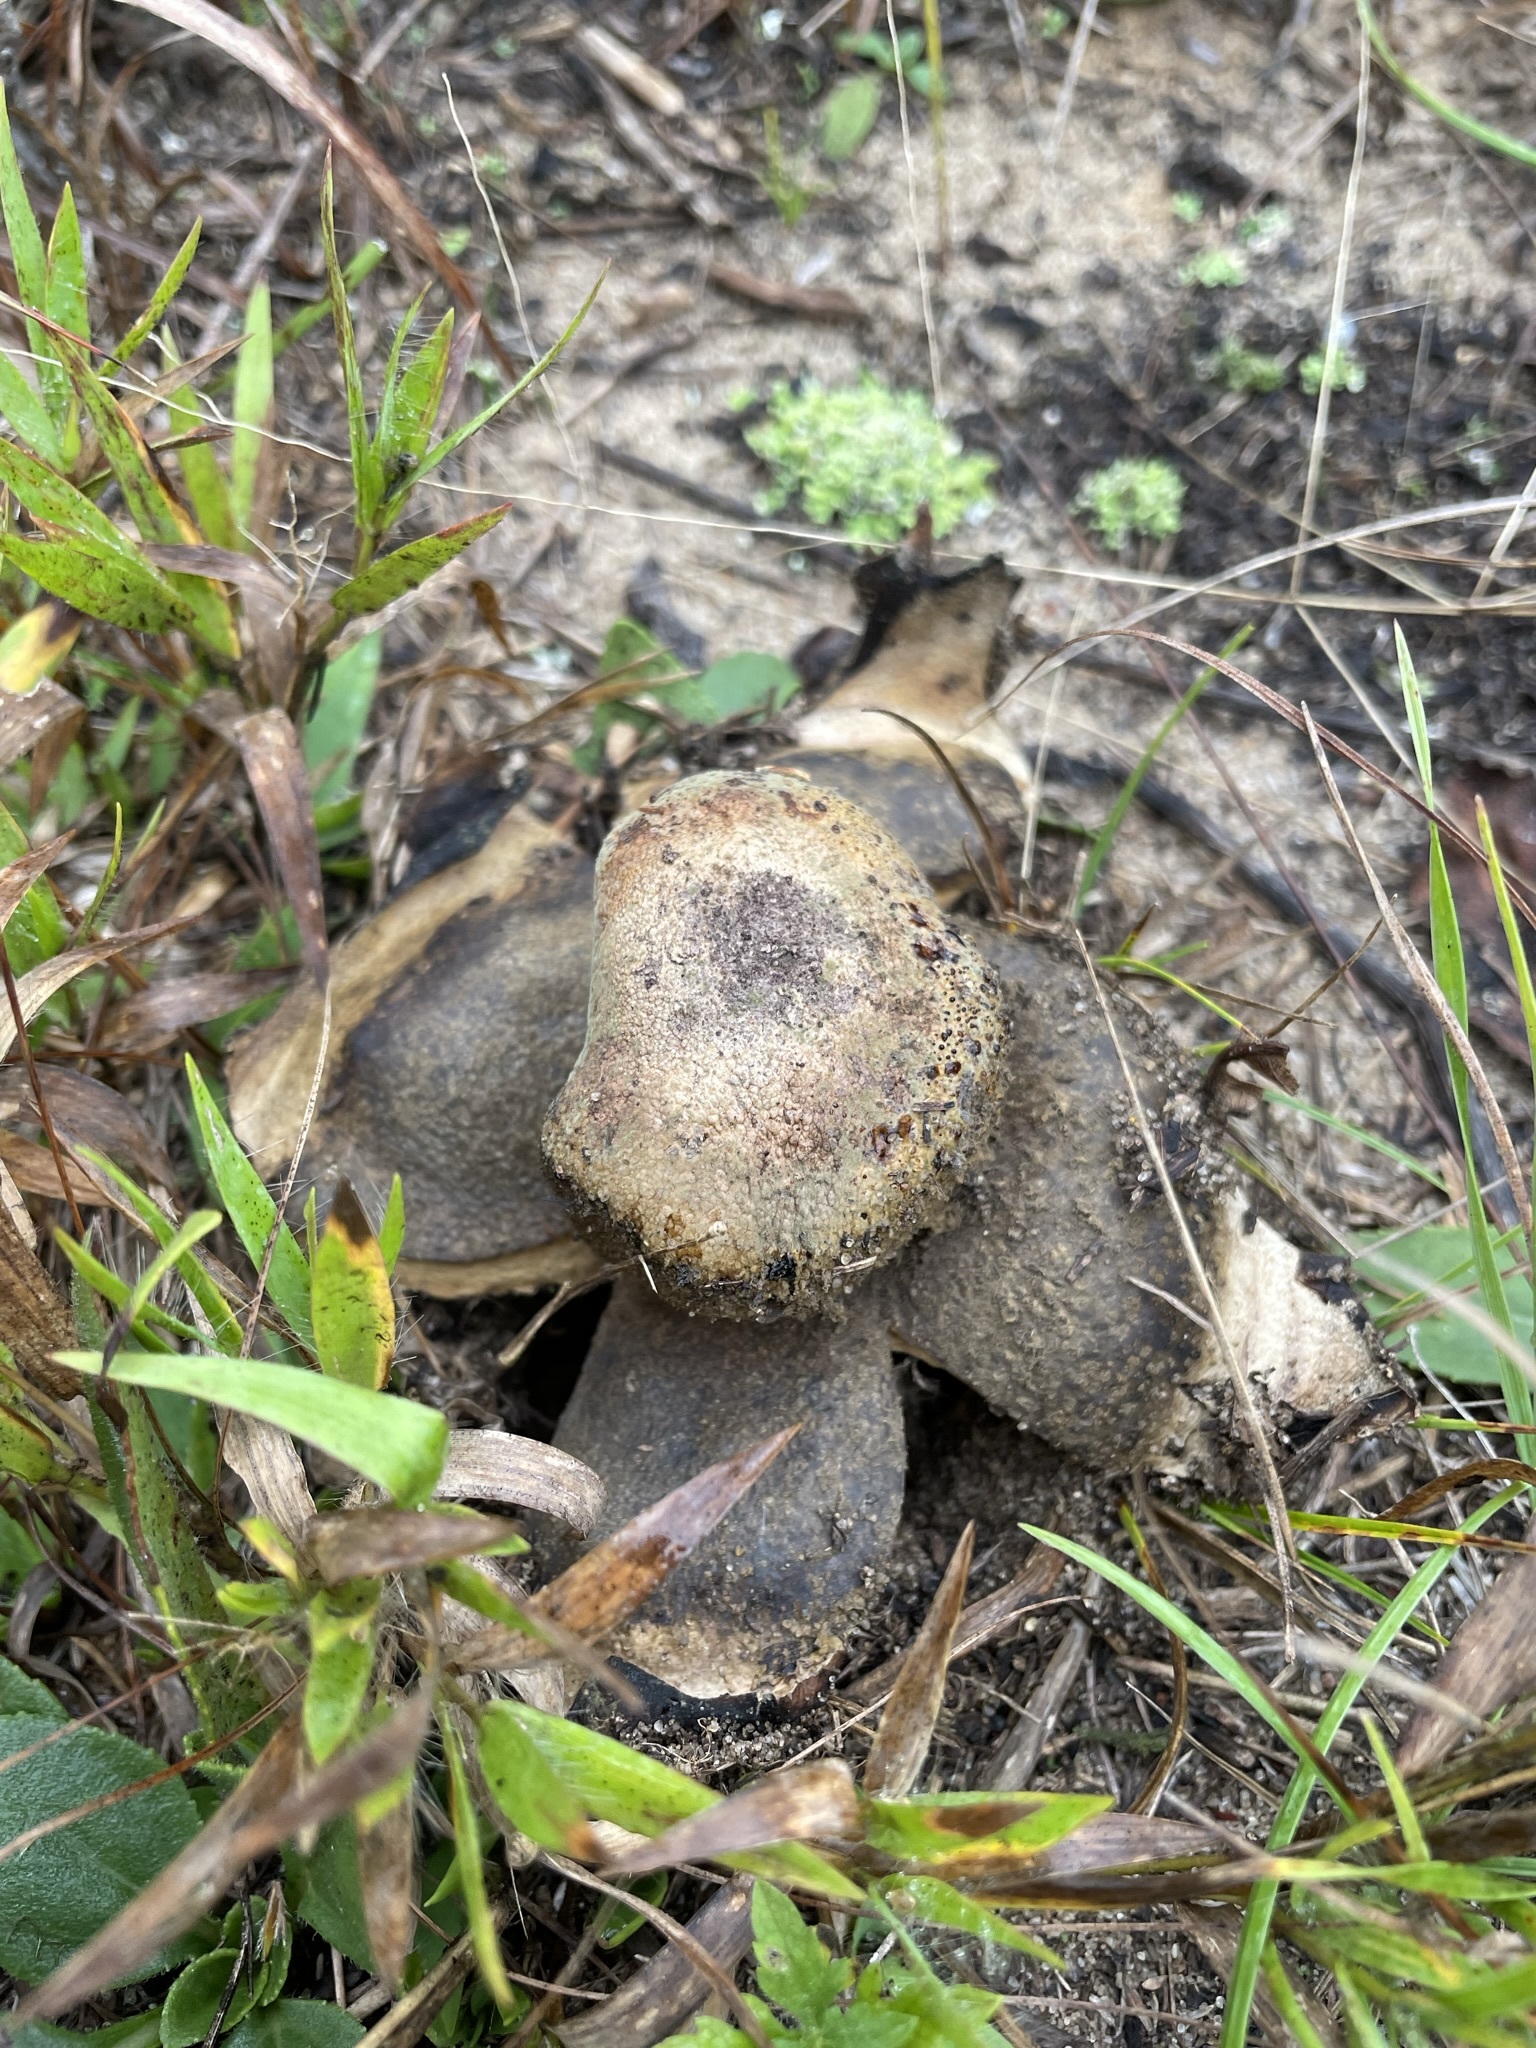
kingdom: Fungi
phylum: Basidiomycota
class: Agaricomycetes
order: Boletales
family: Diplocystidiaceae
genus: Astraeus
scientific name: Astraeus
